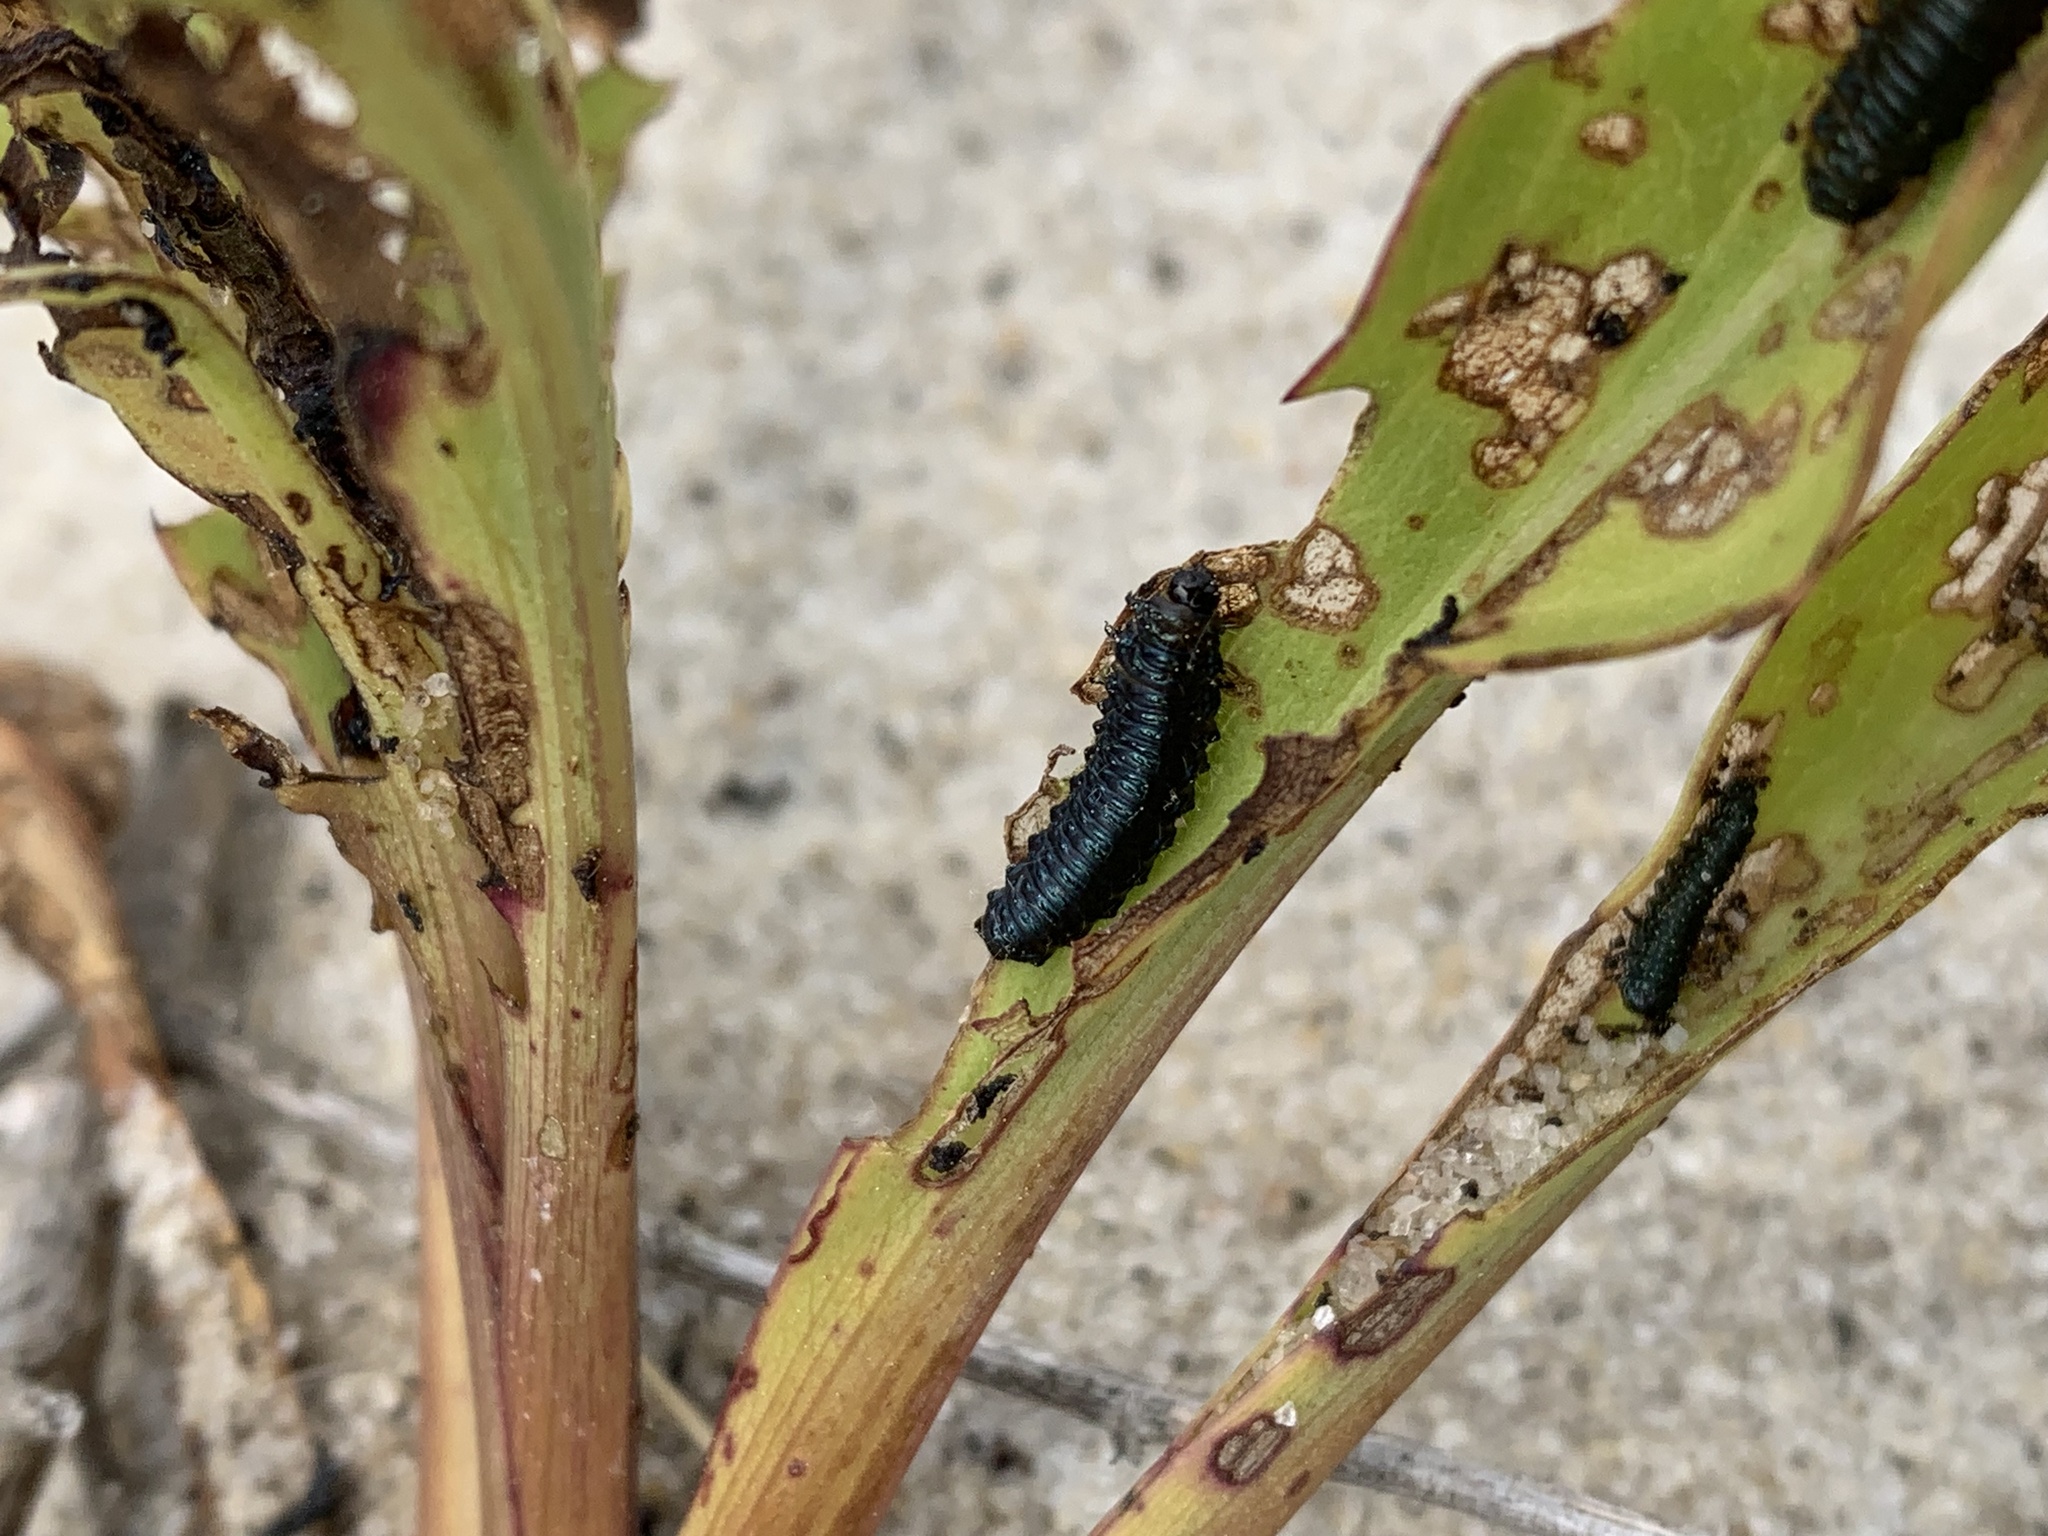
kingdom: Animalia
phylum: Arthropoda
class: Insecta
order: Coleoptera
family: Chrysomelidae
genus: Trirhabda
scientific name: Trirhabda canadensis
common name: Goldenrod leaf beetle
